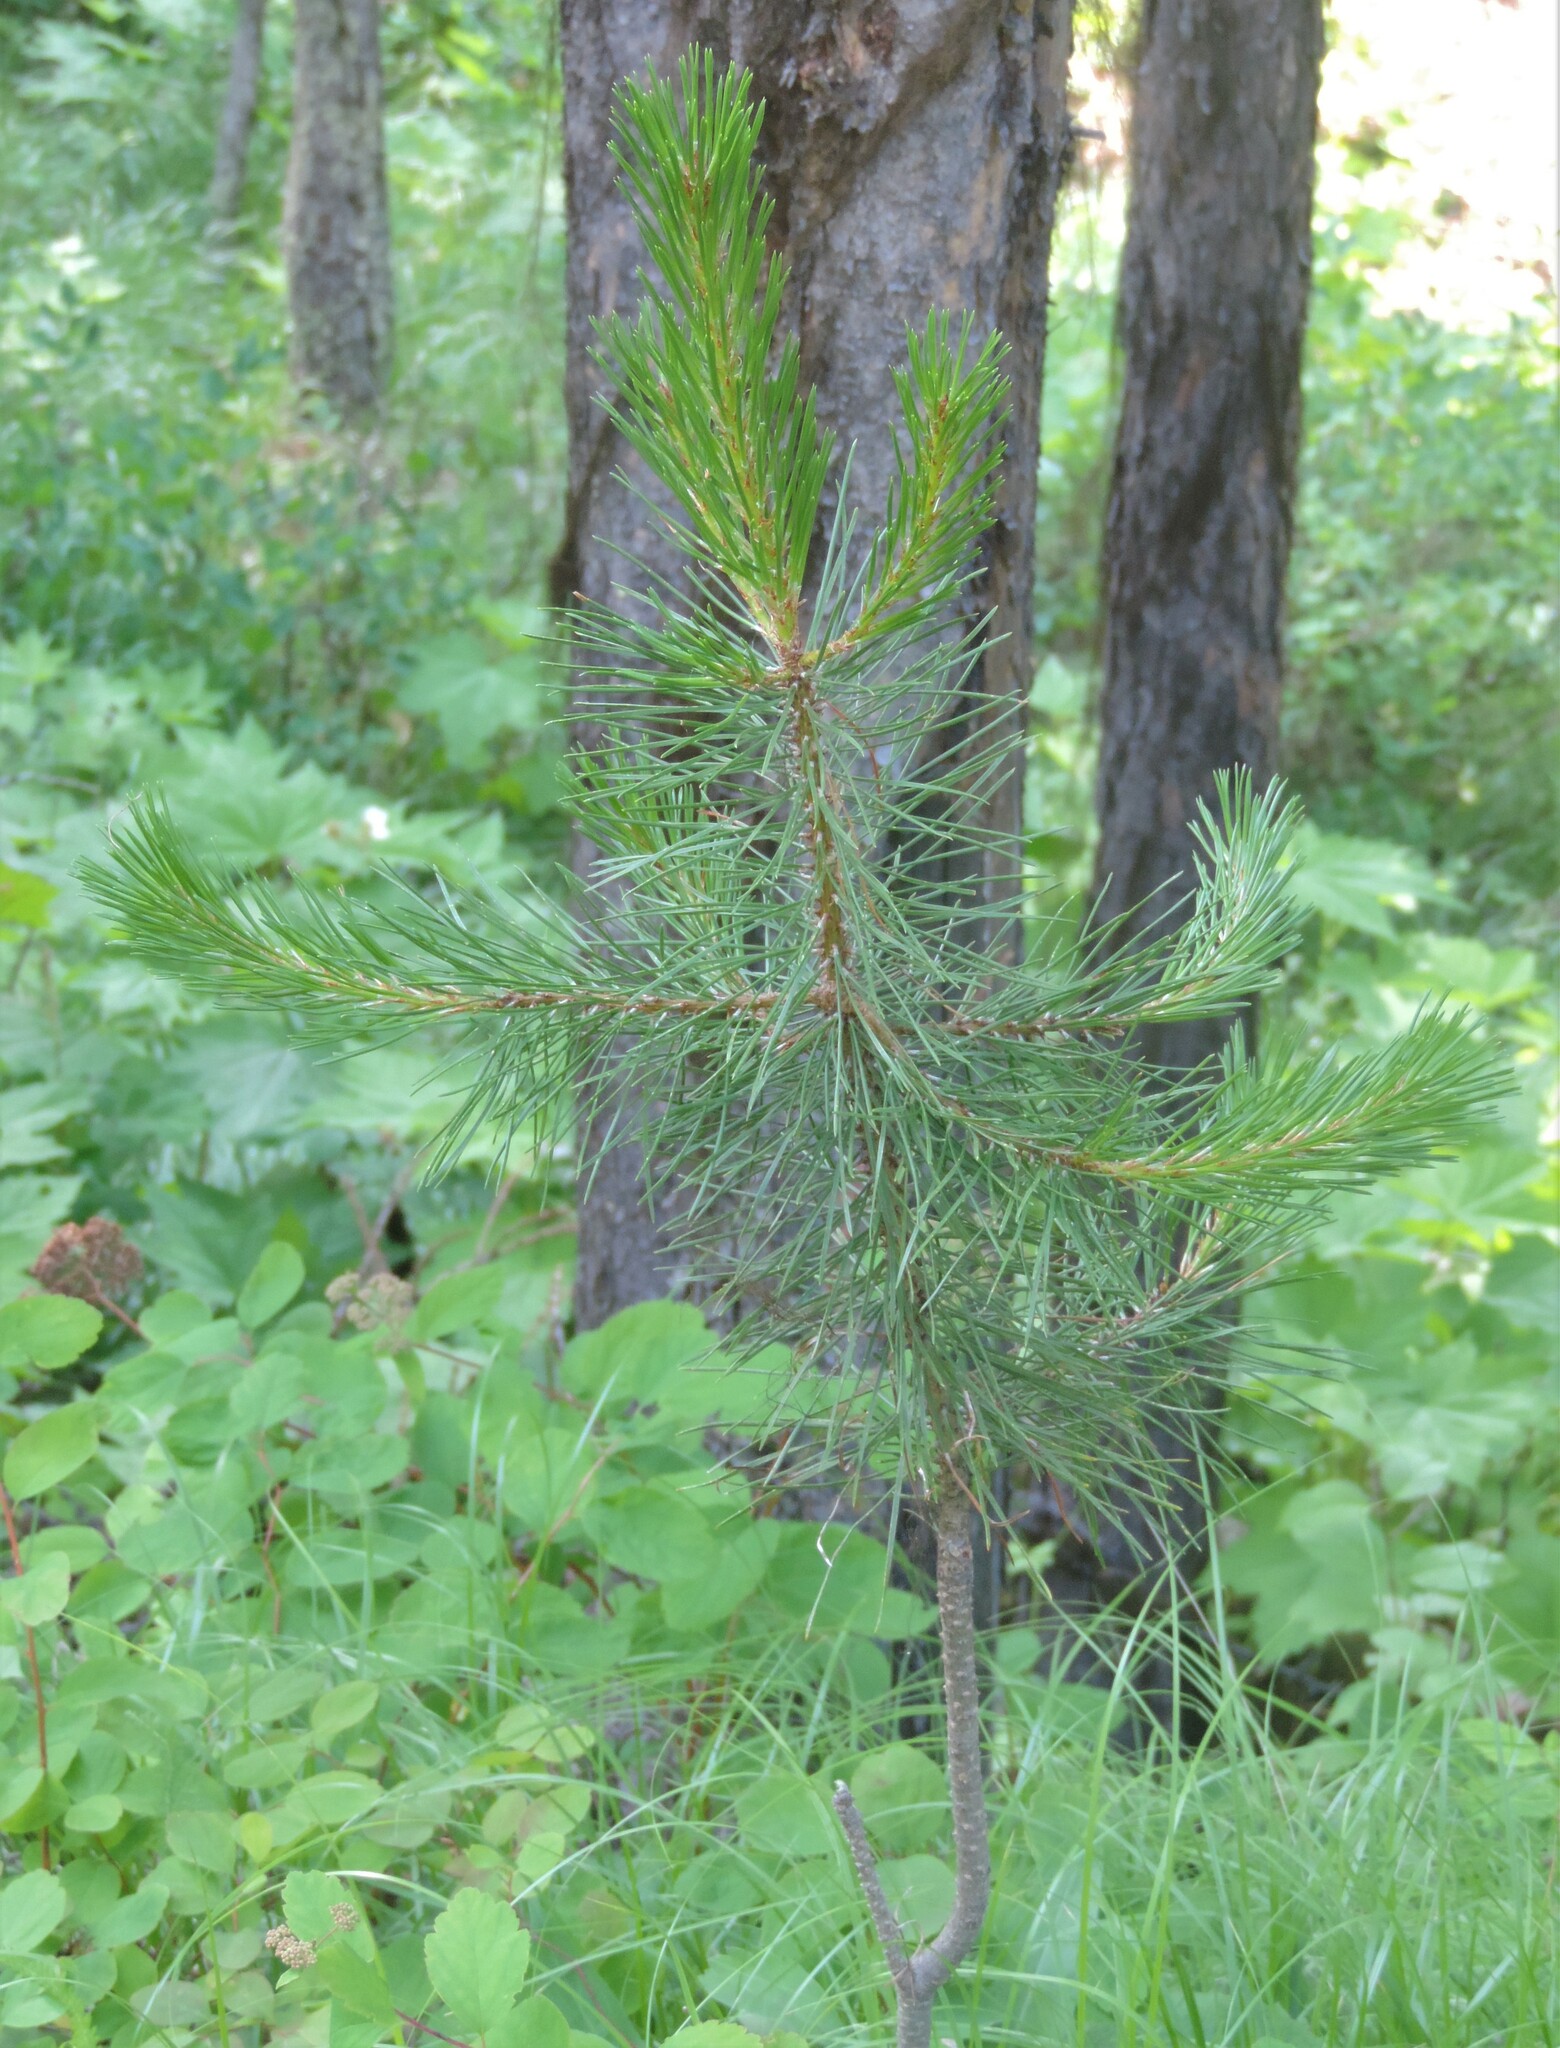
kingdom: Plantae
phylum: Tracheophyta
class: Pinopsida
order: Pinales
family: Pinaceae
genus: Pinus
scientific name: Pinus contorta
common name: Lodgepole pine
